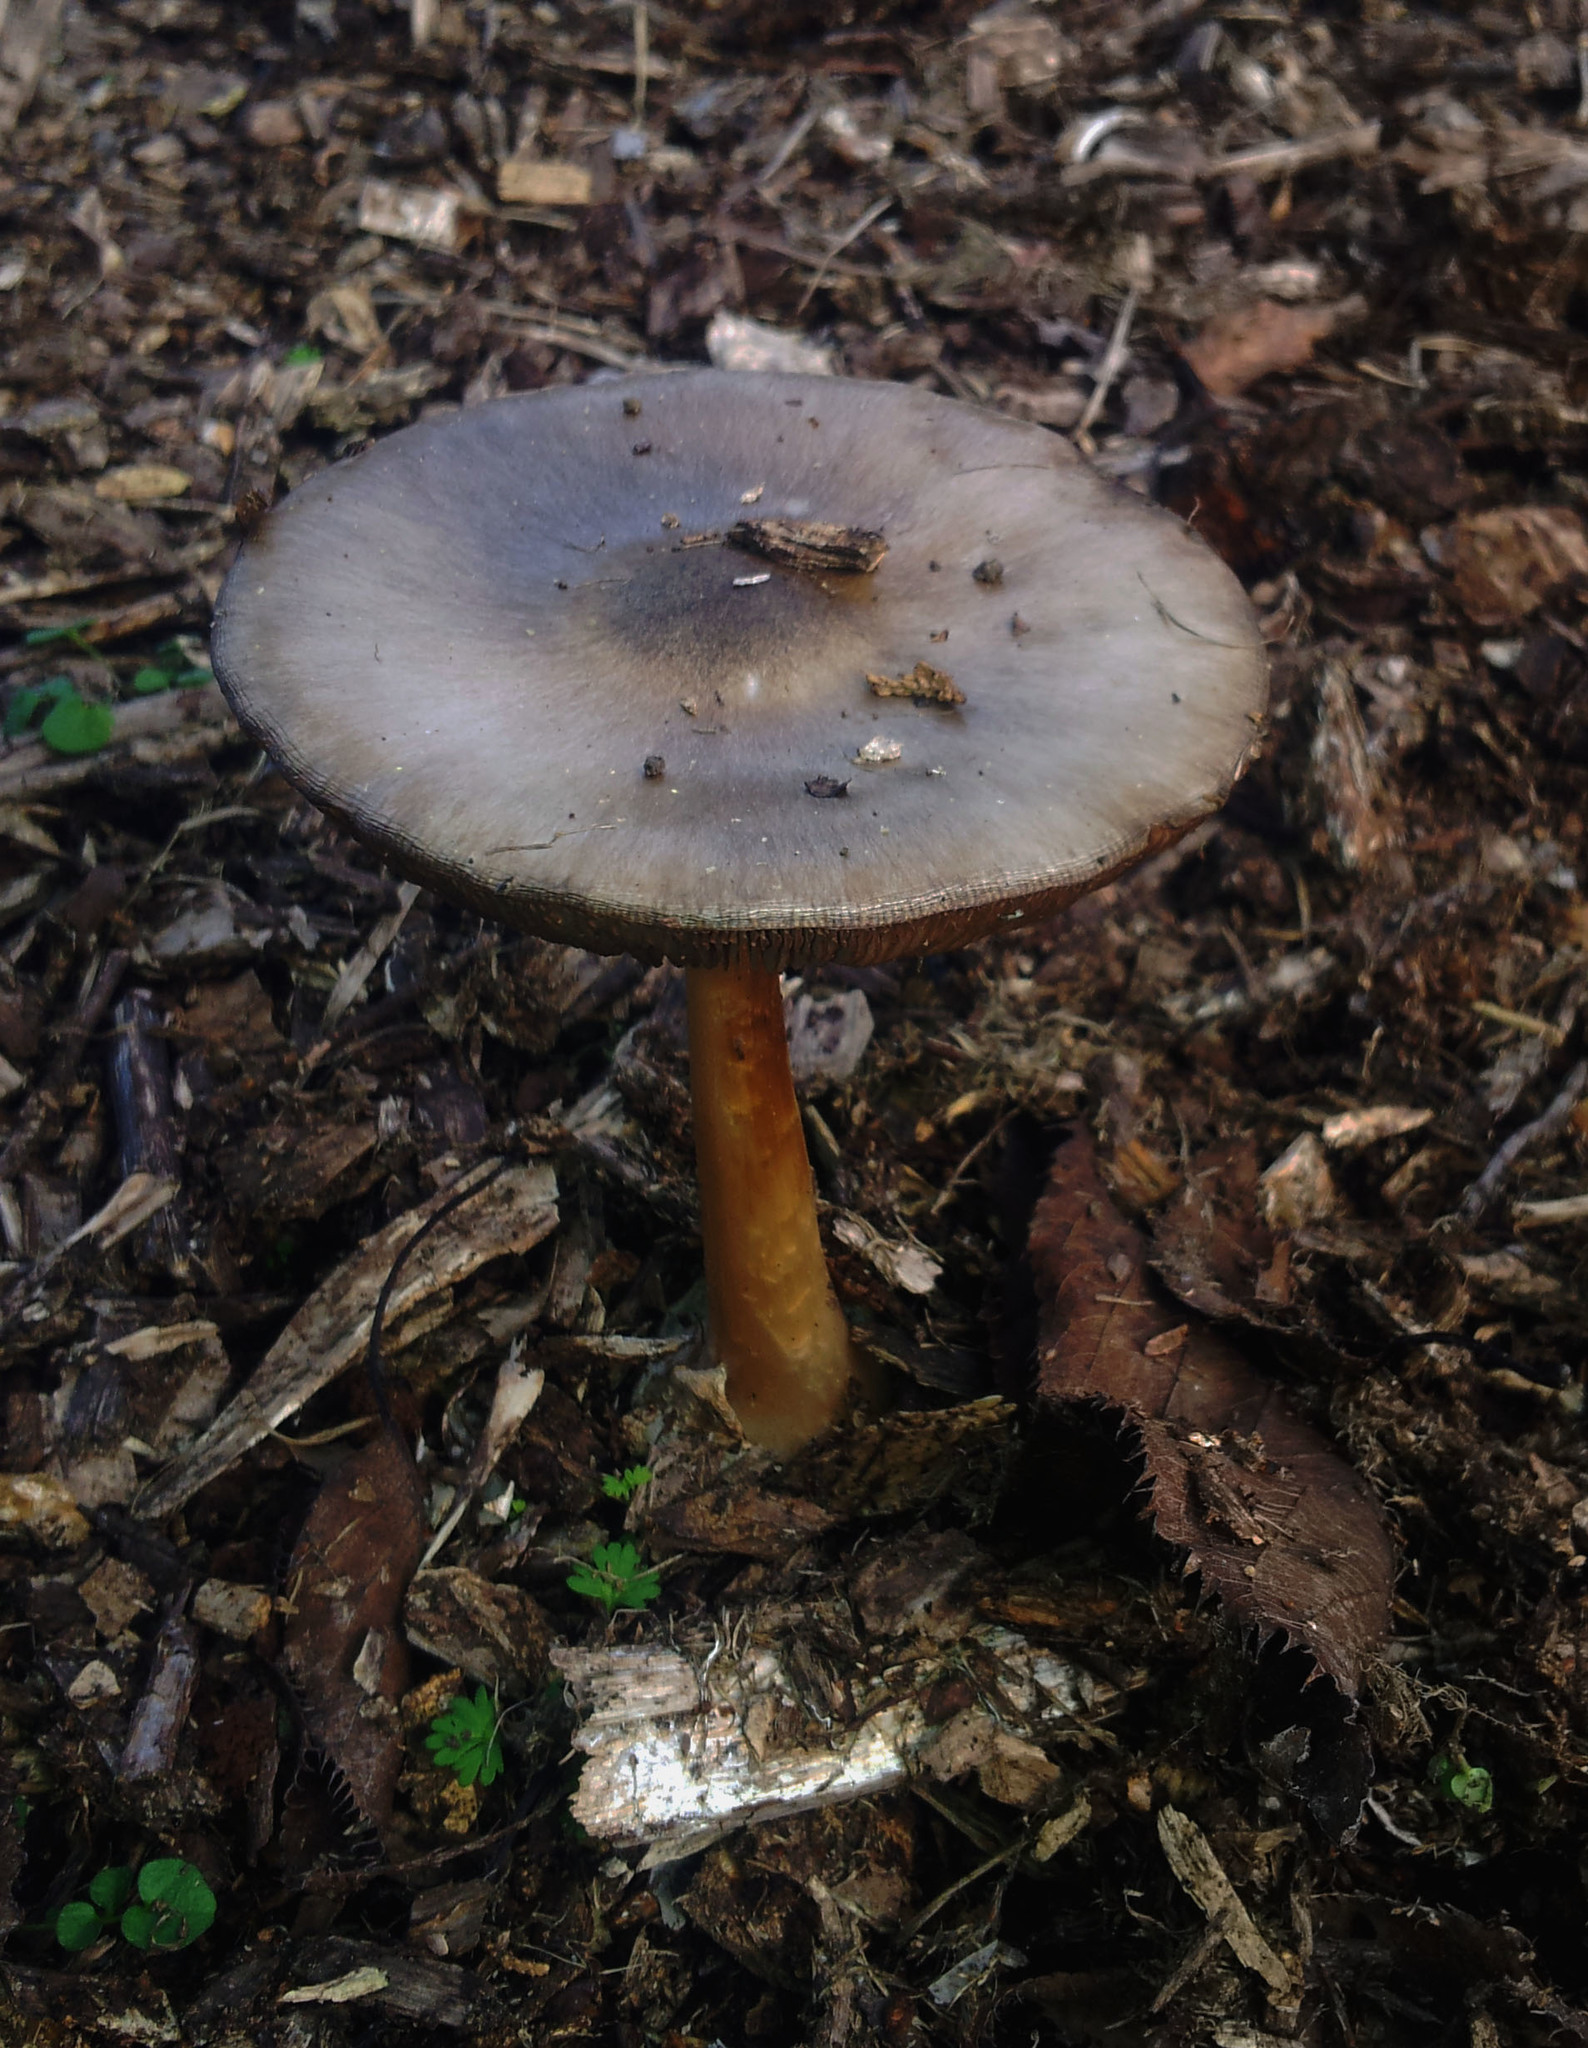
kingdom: Fungi
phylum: Basidiomycota
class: Agaricomycetes
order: Agaricales
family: Pluteaceae
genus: Volvopluteus
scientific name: Volvopluteus gloiocephalus
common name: Stubble rosegill
